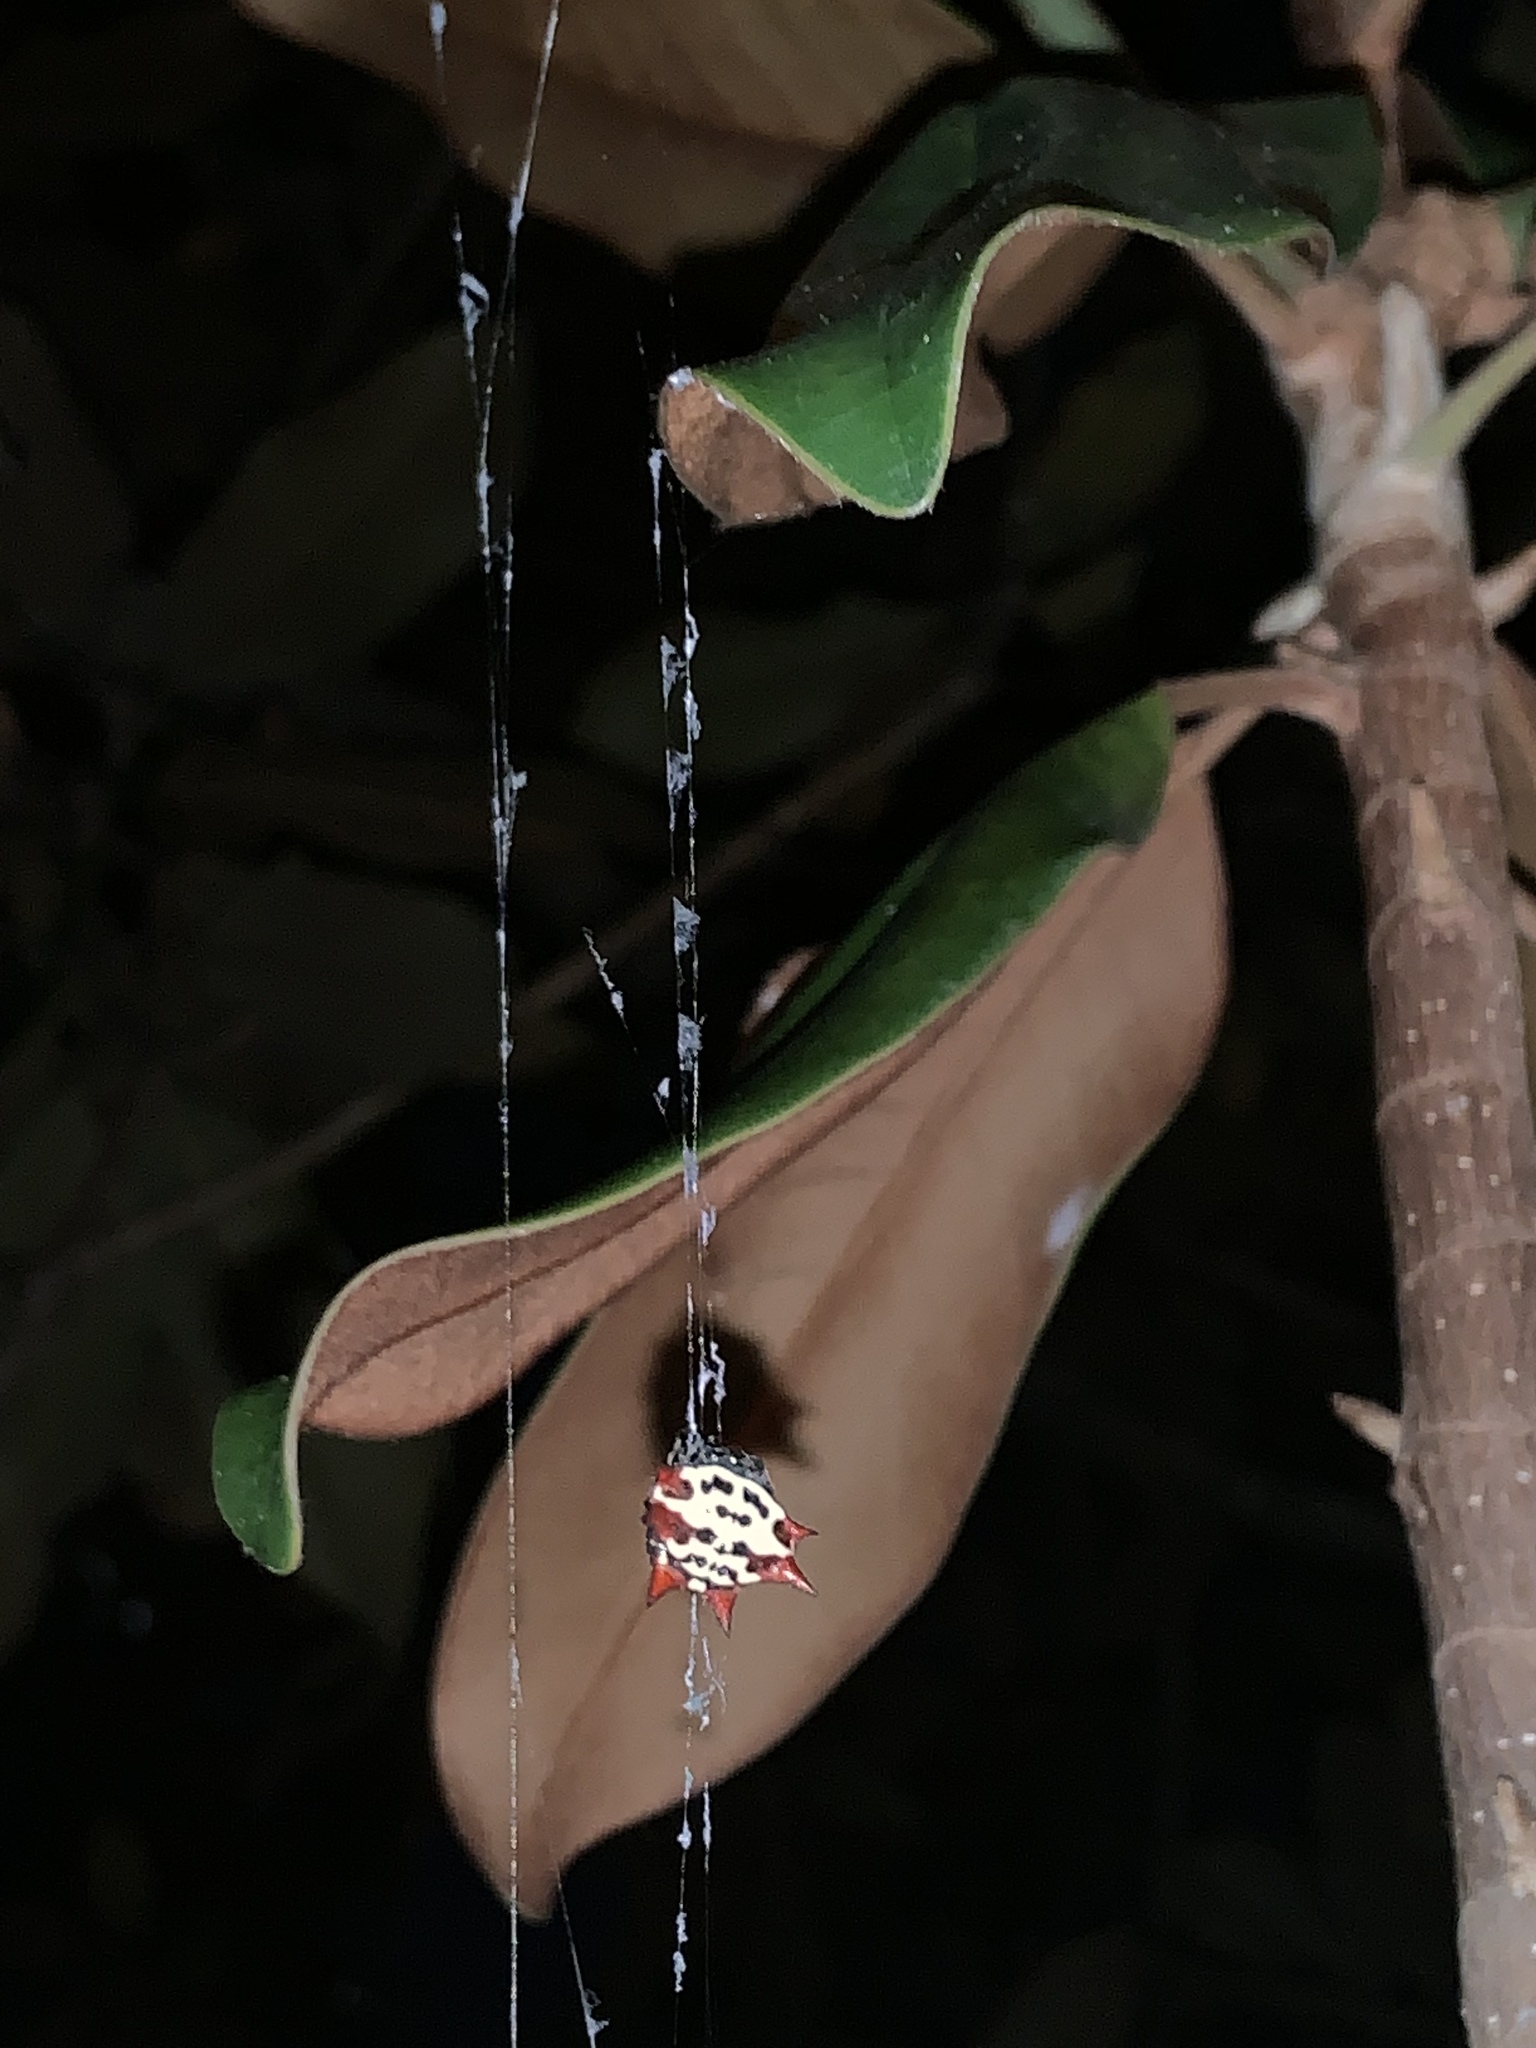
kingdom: Animalia
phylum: Arthropoda
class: Arachnida
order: Araneae
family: Araneidae
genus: Gasteracantha
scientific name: Gasteracantha cancriformis
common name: Orb weavers
